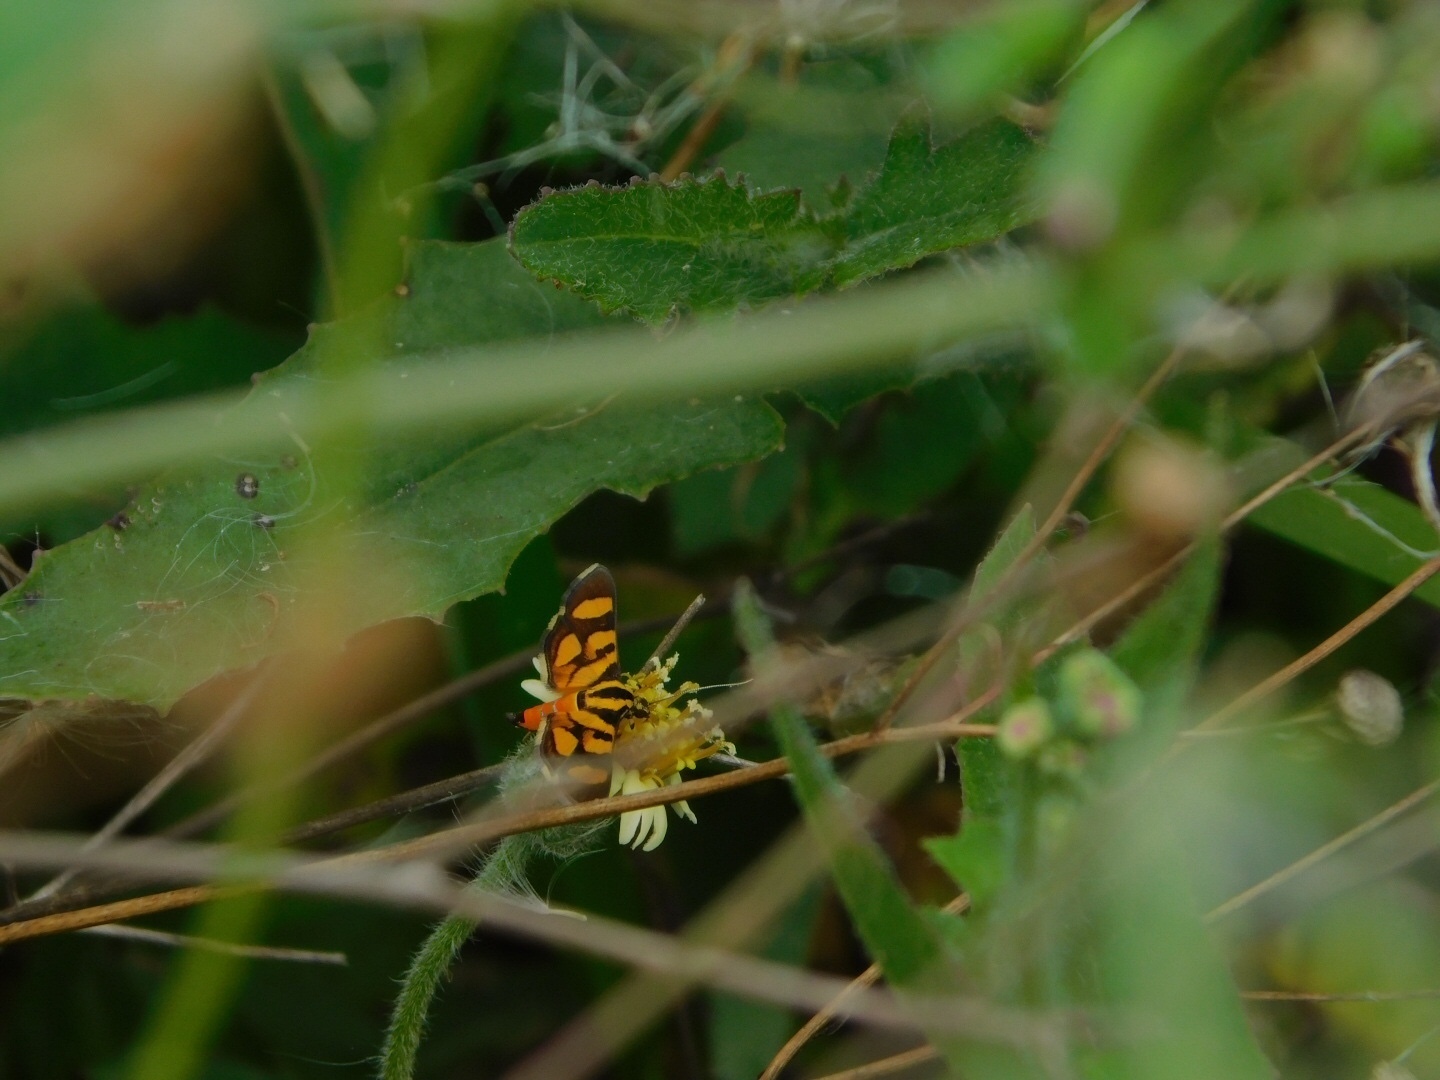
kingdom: Animalia
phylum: Arthropoda
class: Insecta
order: Lepidoptera
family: Crambidae
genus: Syngamia
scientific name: Syngamia florella
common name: Orange-spotted flower moth
